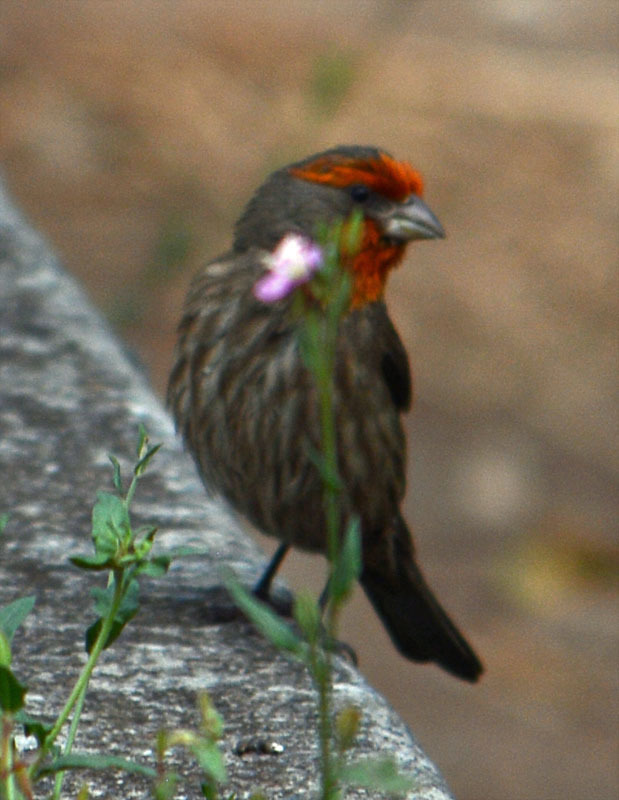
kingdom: Animalia
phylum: Chordata
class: Aves
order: Passeriformes
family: Fringillidae
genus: Haemorhous
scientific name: Haemorhous mexicanus
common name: House finch
